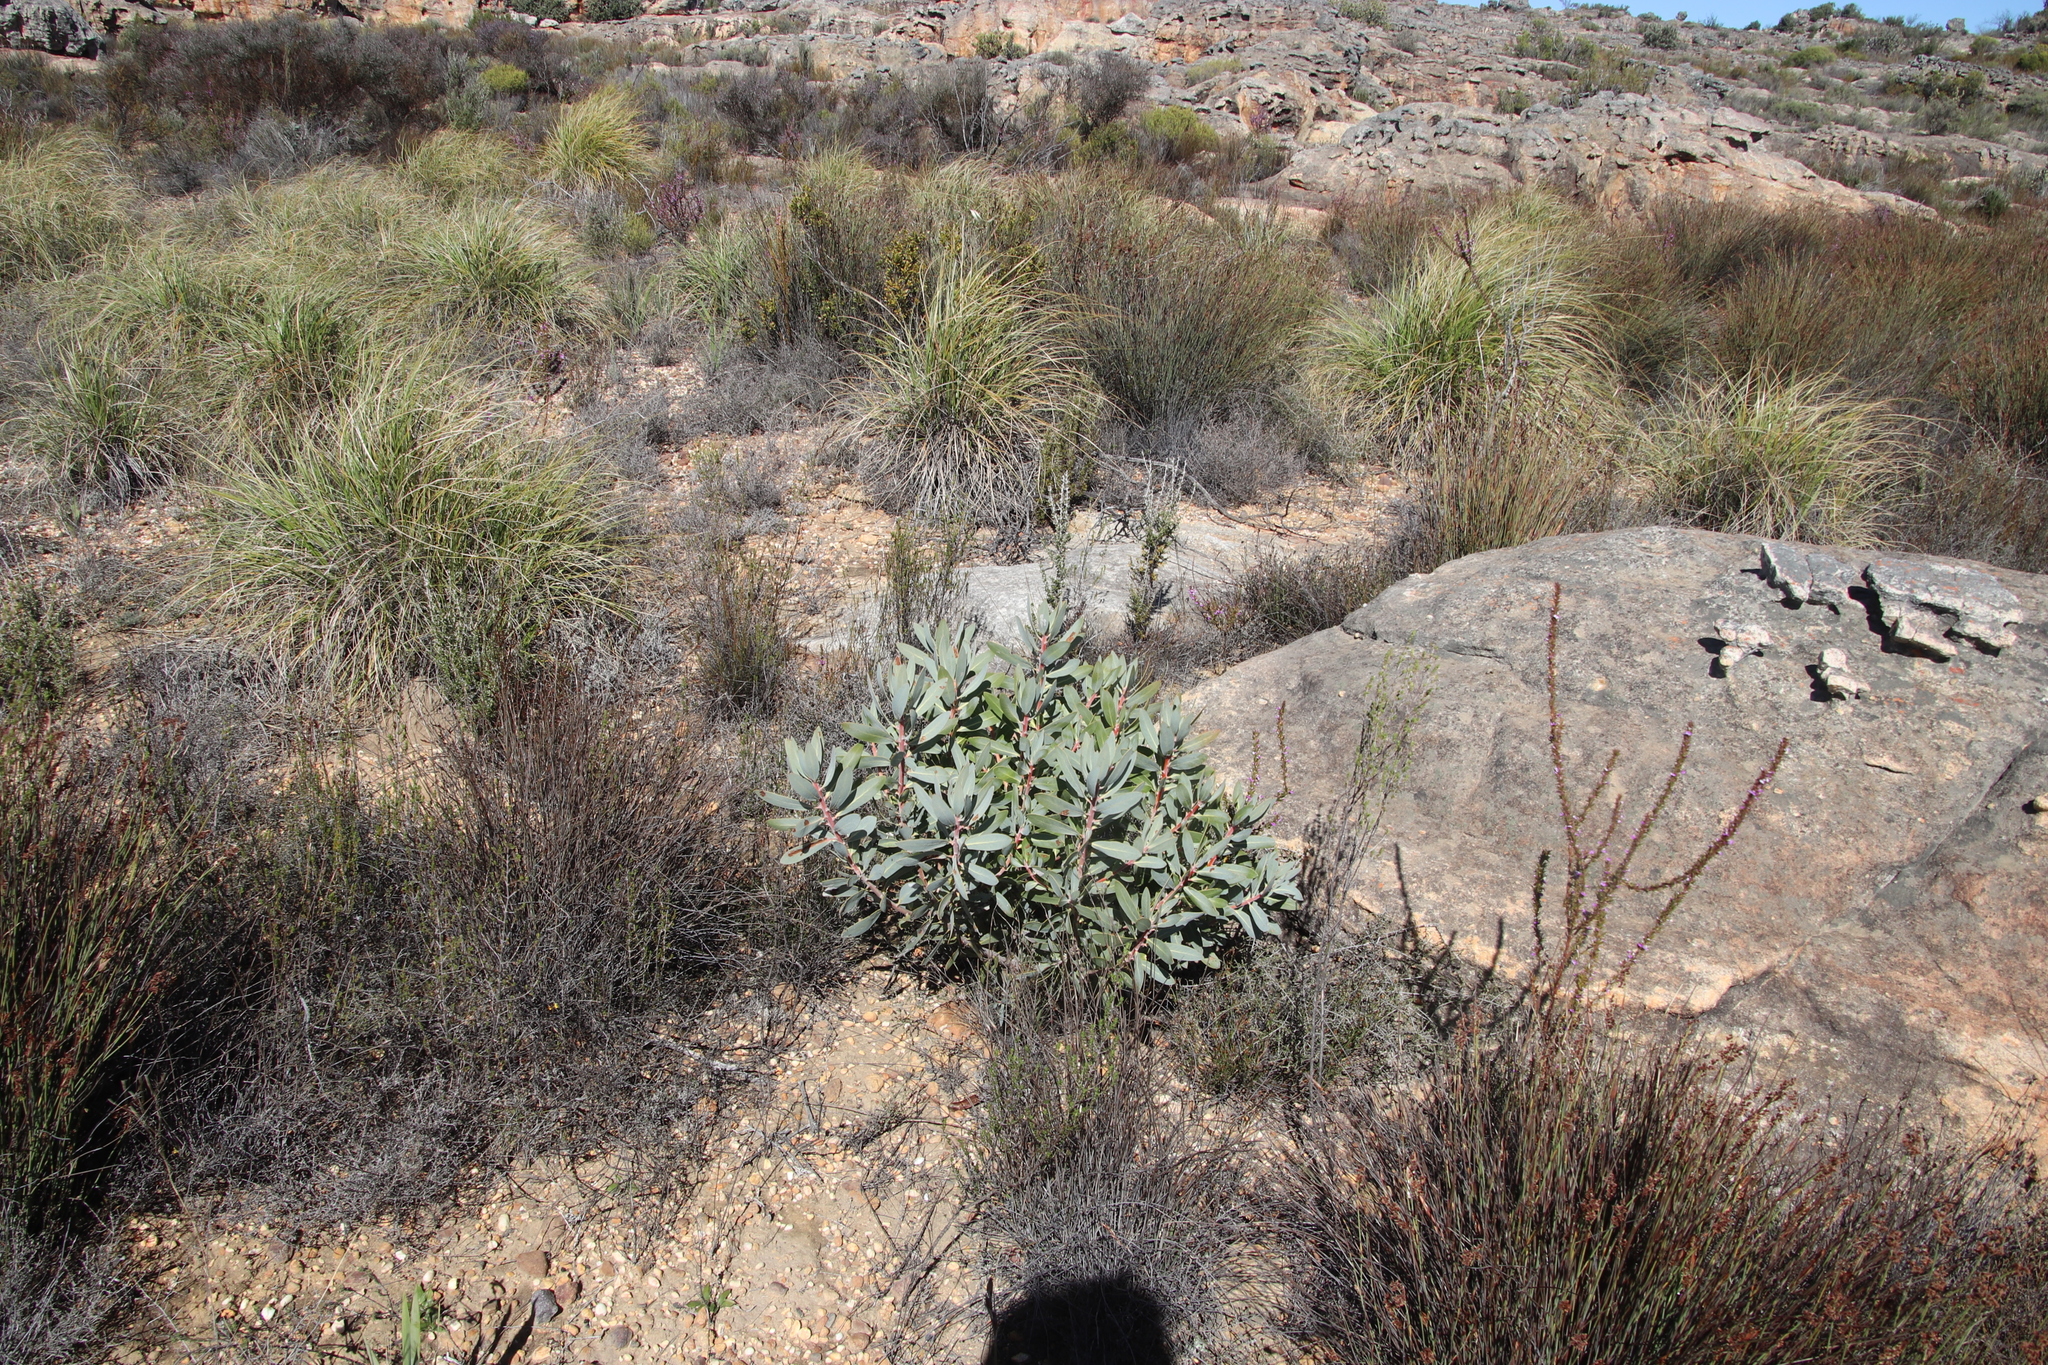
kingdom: Plantae
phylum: Tracheophyta
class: Magnoliopsida
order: Proteales
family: Proteaceae
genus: Protea
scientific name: Protea laurifolia
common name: Grey-leaf sugarbsh
